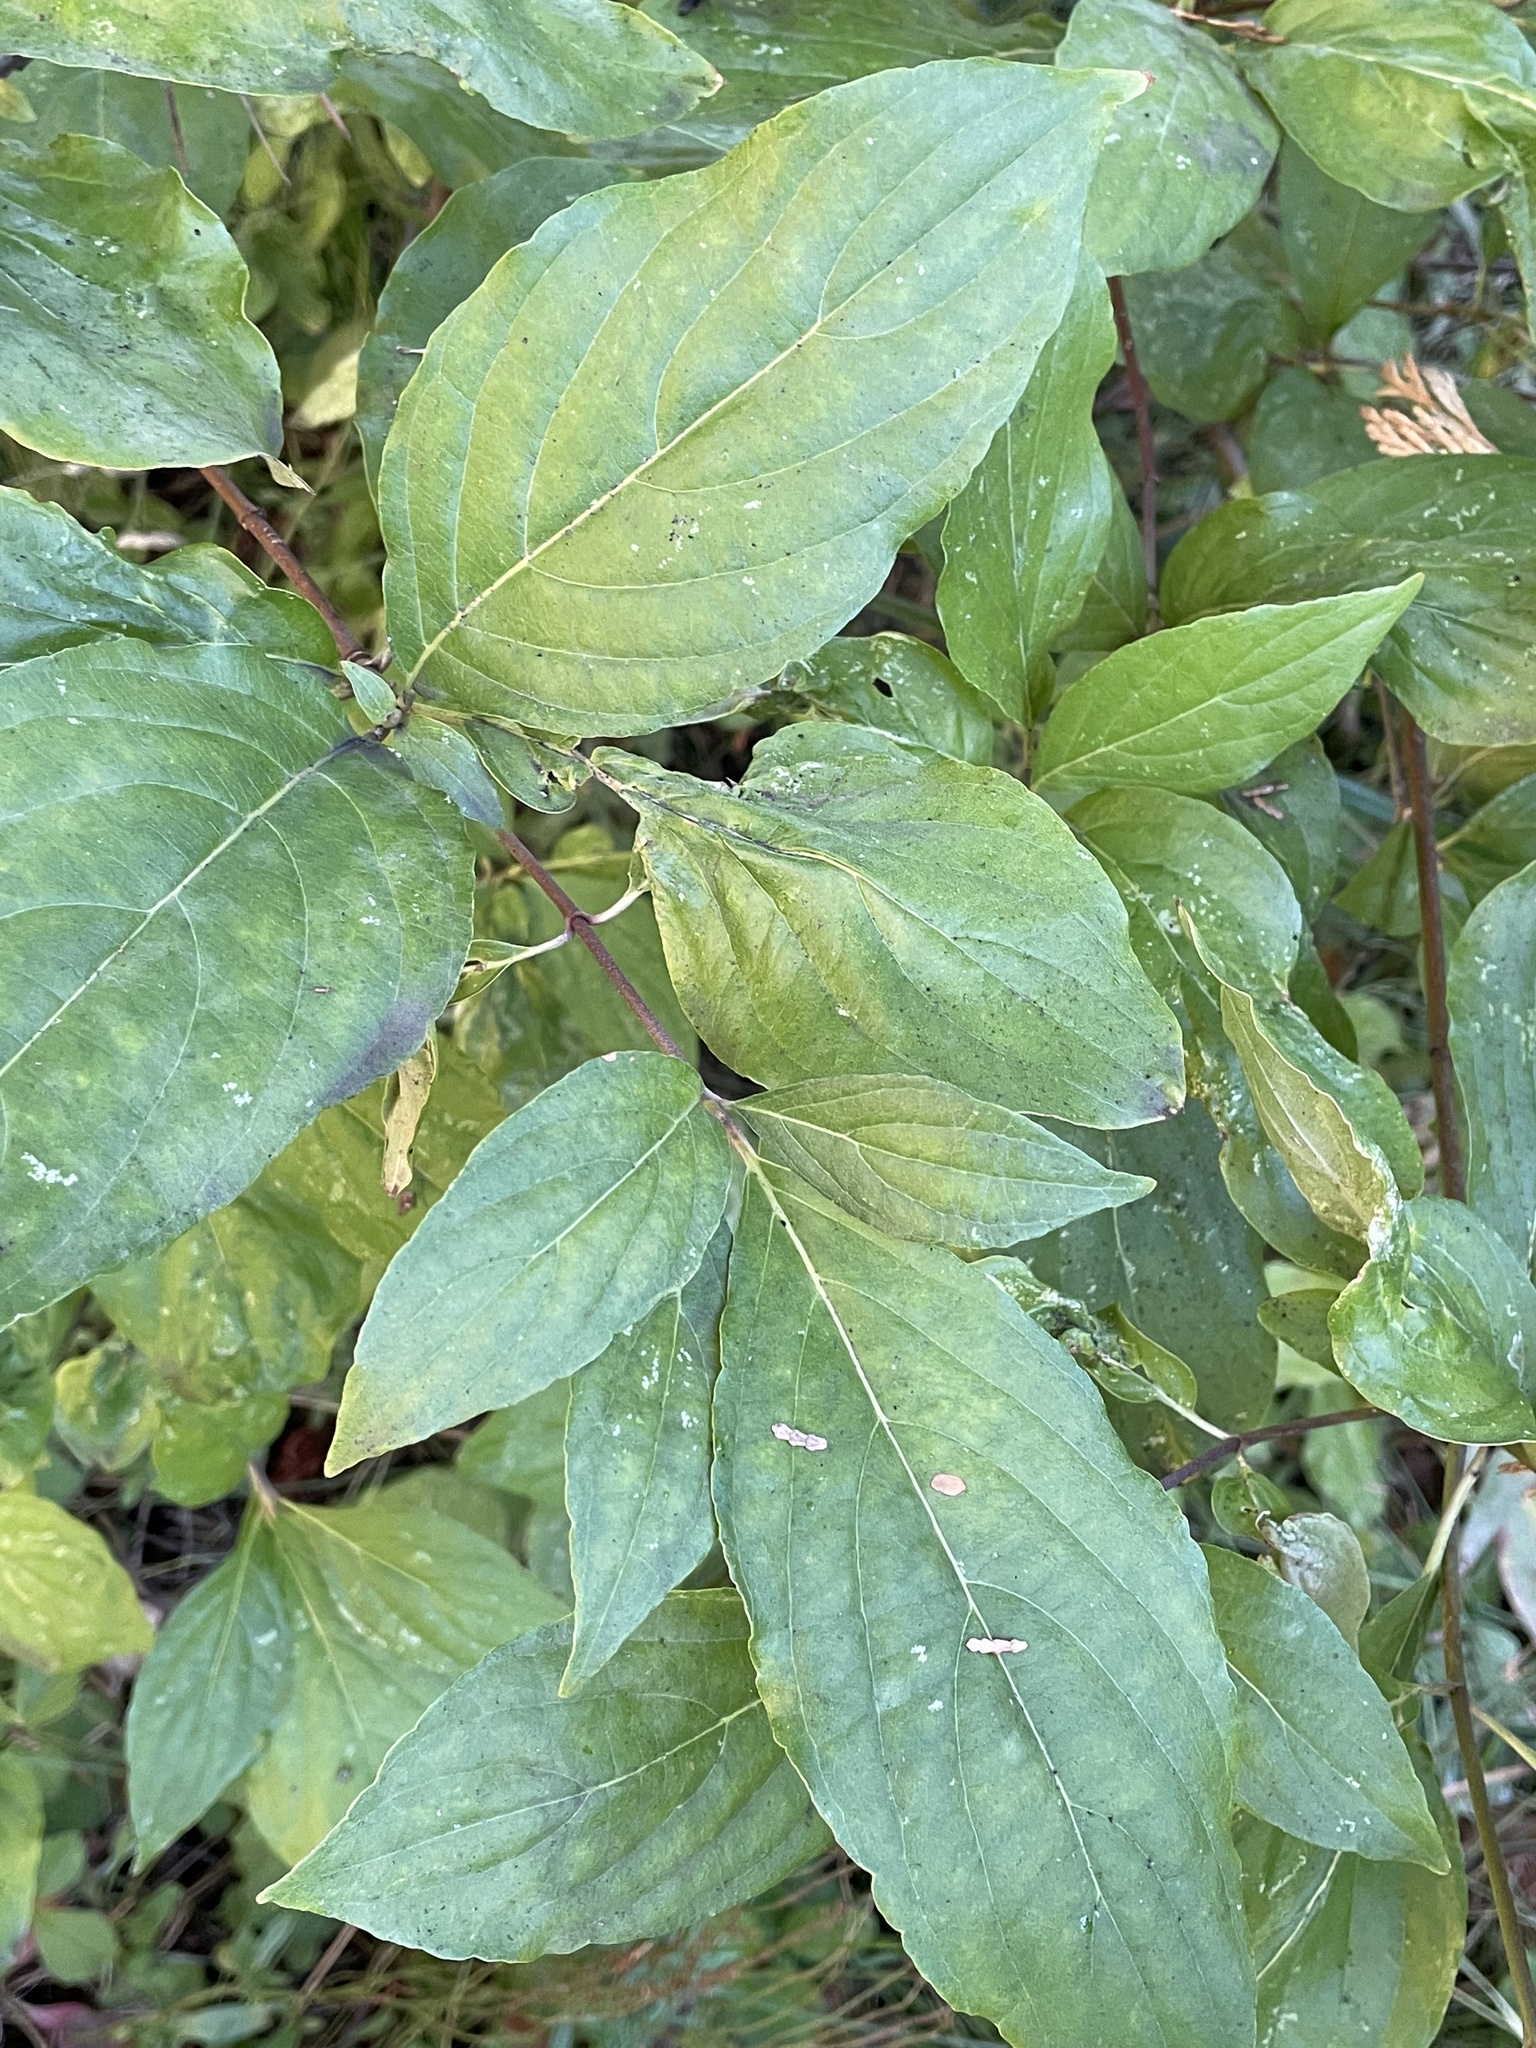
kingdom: Plantae
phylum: Tracheophyta
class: Magnoliopsida
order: Cornales
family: Cornaceae
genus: Cornus
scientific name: Cornus nuttallii
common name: Pacific dogwood
